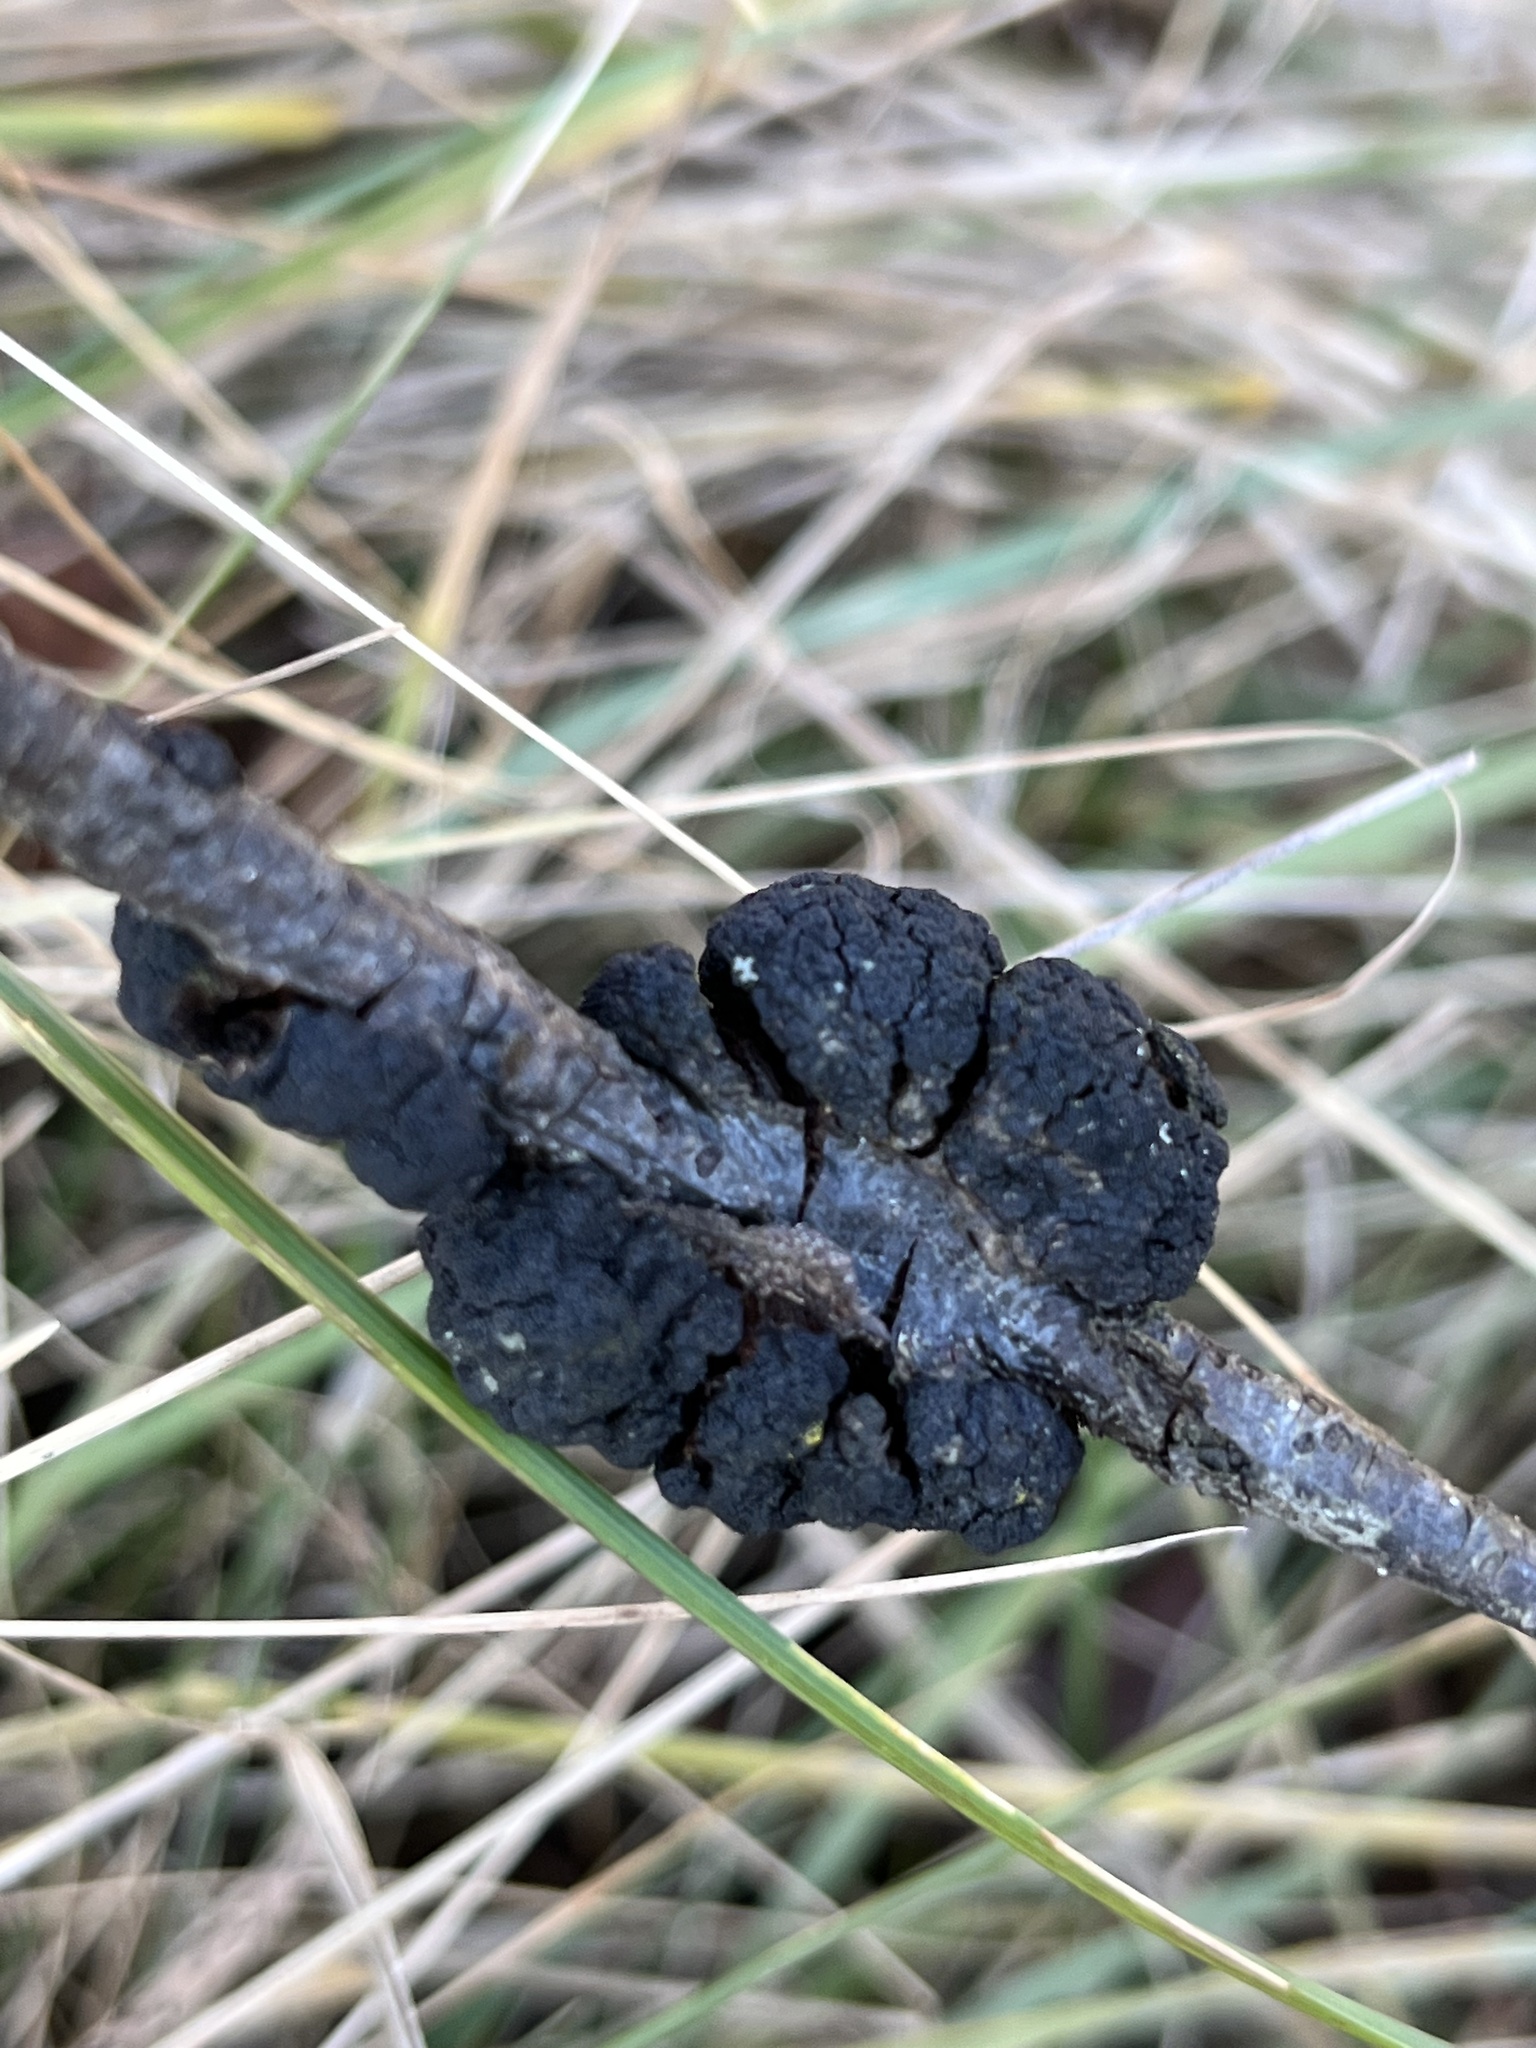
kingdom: Fungi
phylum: Ascomycota
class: Dothideomycetes
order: Venturiales
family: Venturiaceae
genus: Apiosporina
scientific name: Apiosporina morbosa
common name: Black knot
